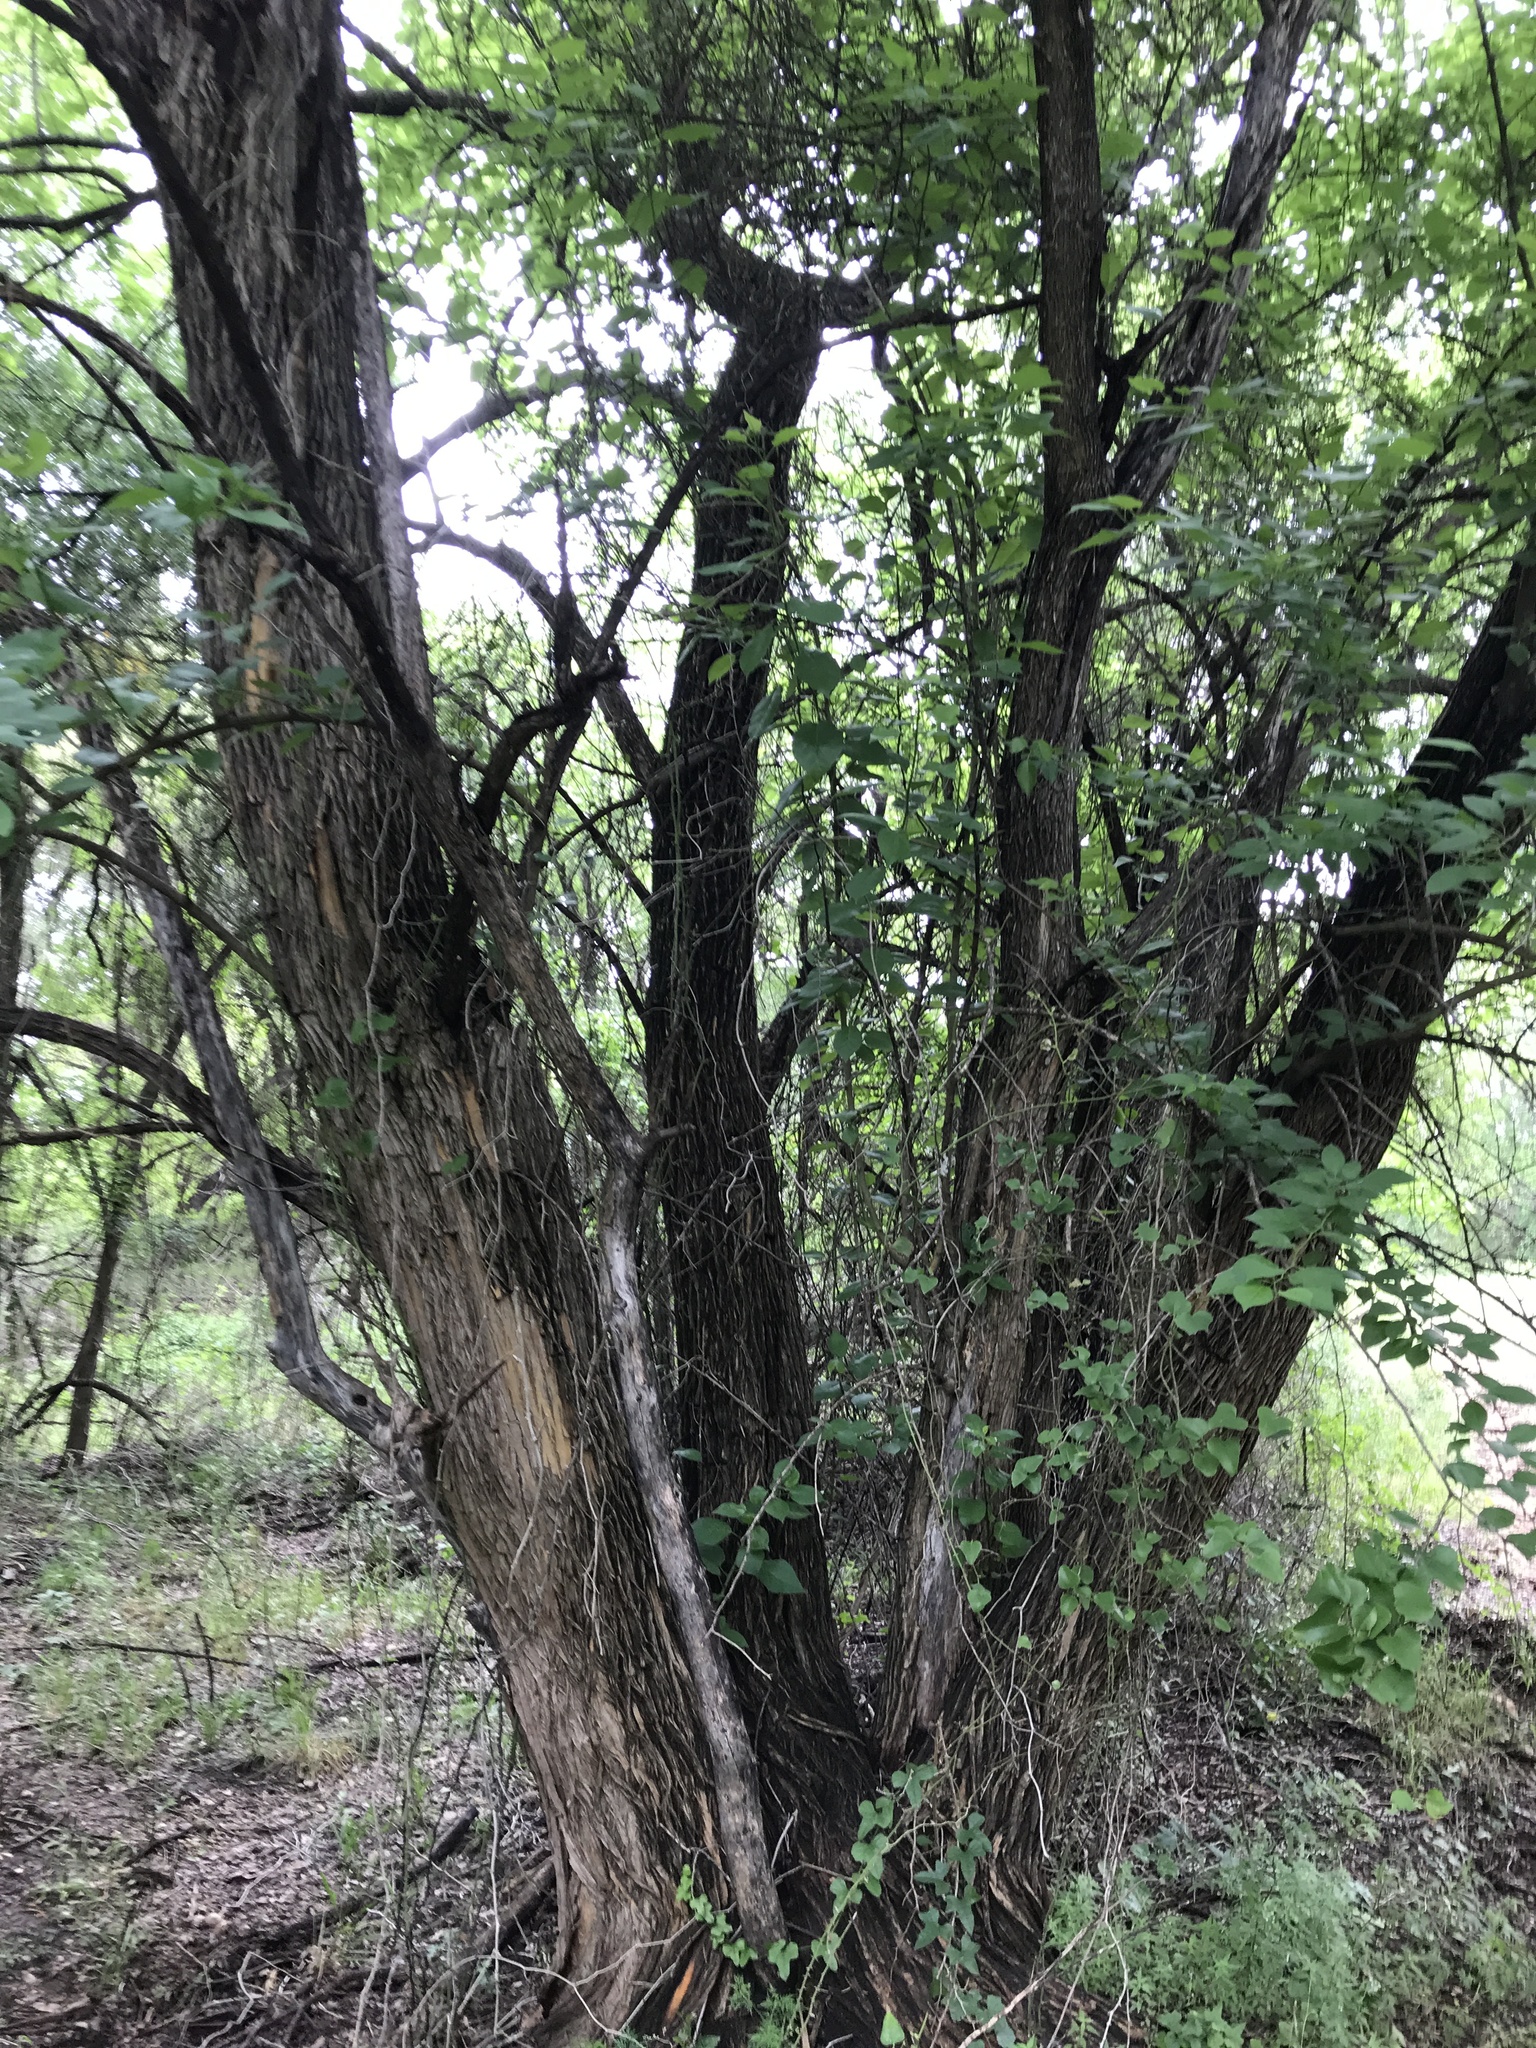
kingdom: Plantae
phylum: Tracheophyta
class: Magnoliopsida
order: Rosales
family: Moraceae
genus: Maclura
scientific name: Maclura pomifera
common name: Osage-orange
